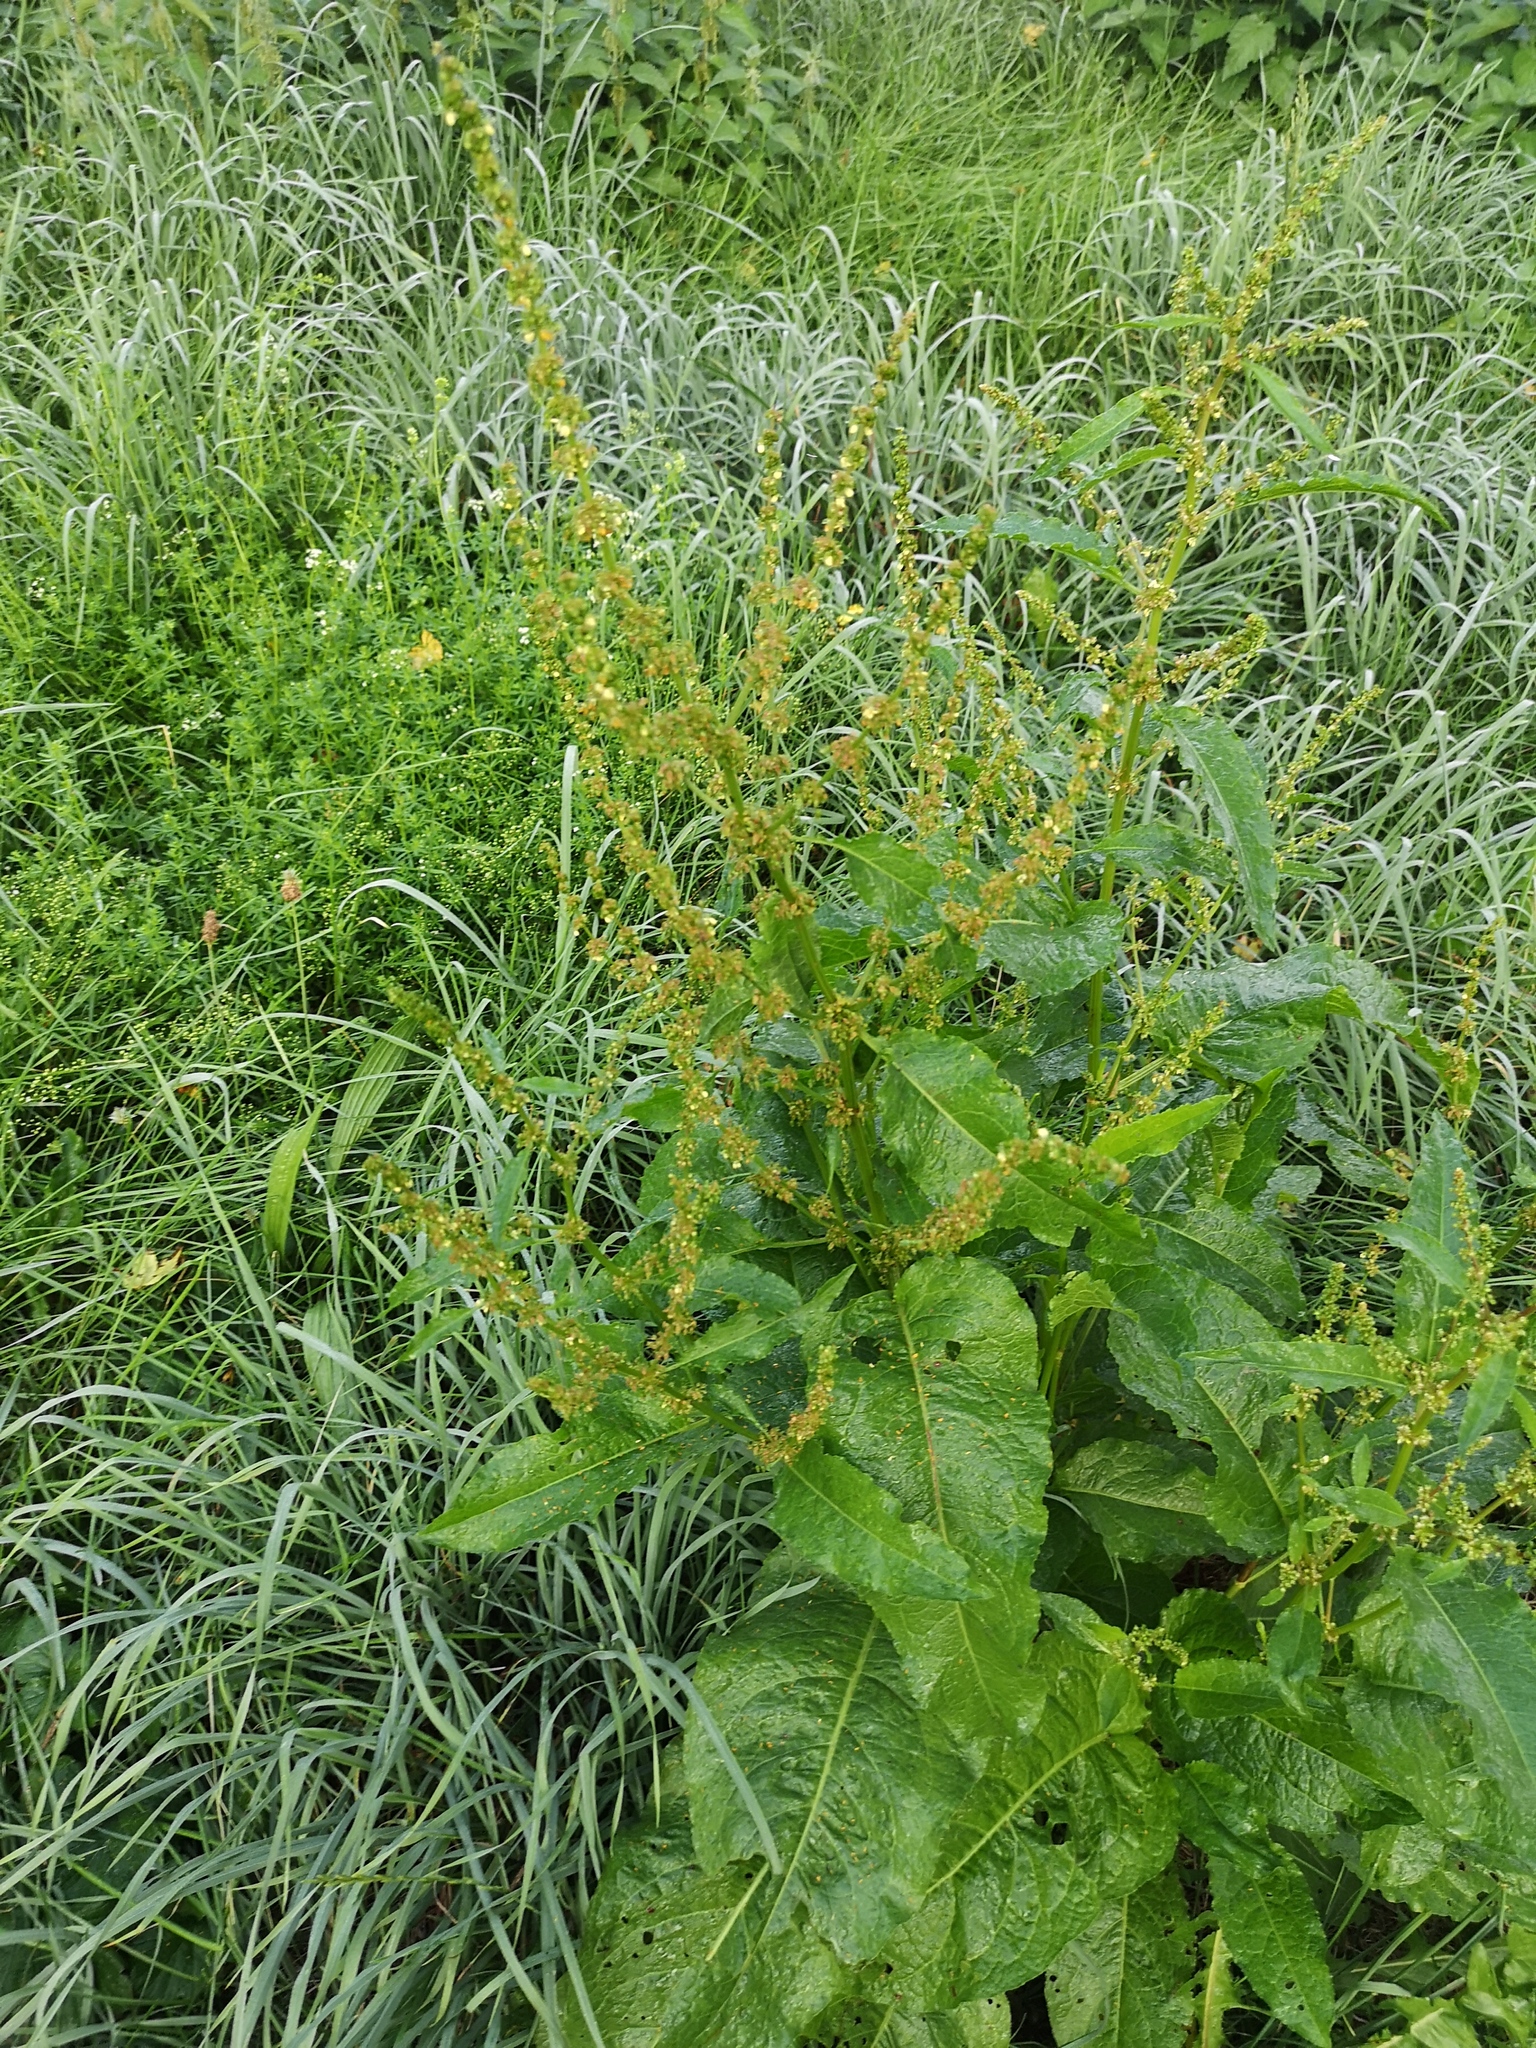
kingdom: Plantae
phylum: Tracheophyta
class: Magnoliopsida
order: Caryophyllales
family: Polygonaceae
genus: Rumex
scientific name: Rumex obtusifolius
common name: Bitter dock
